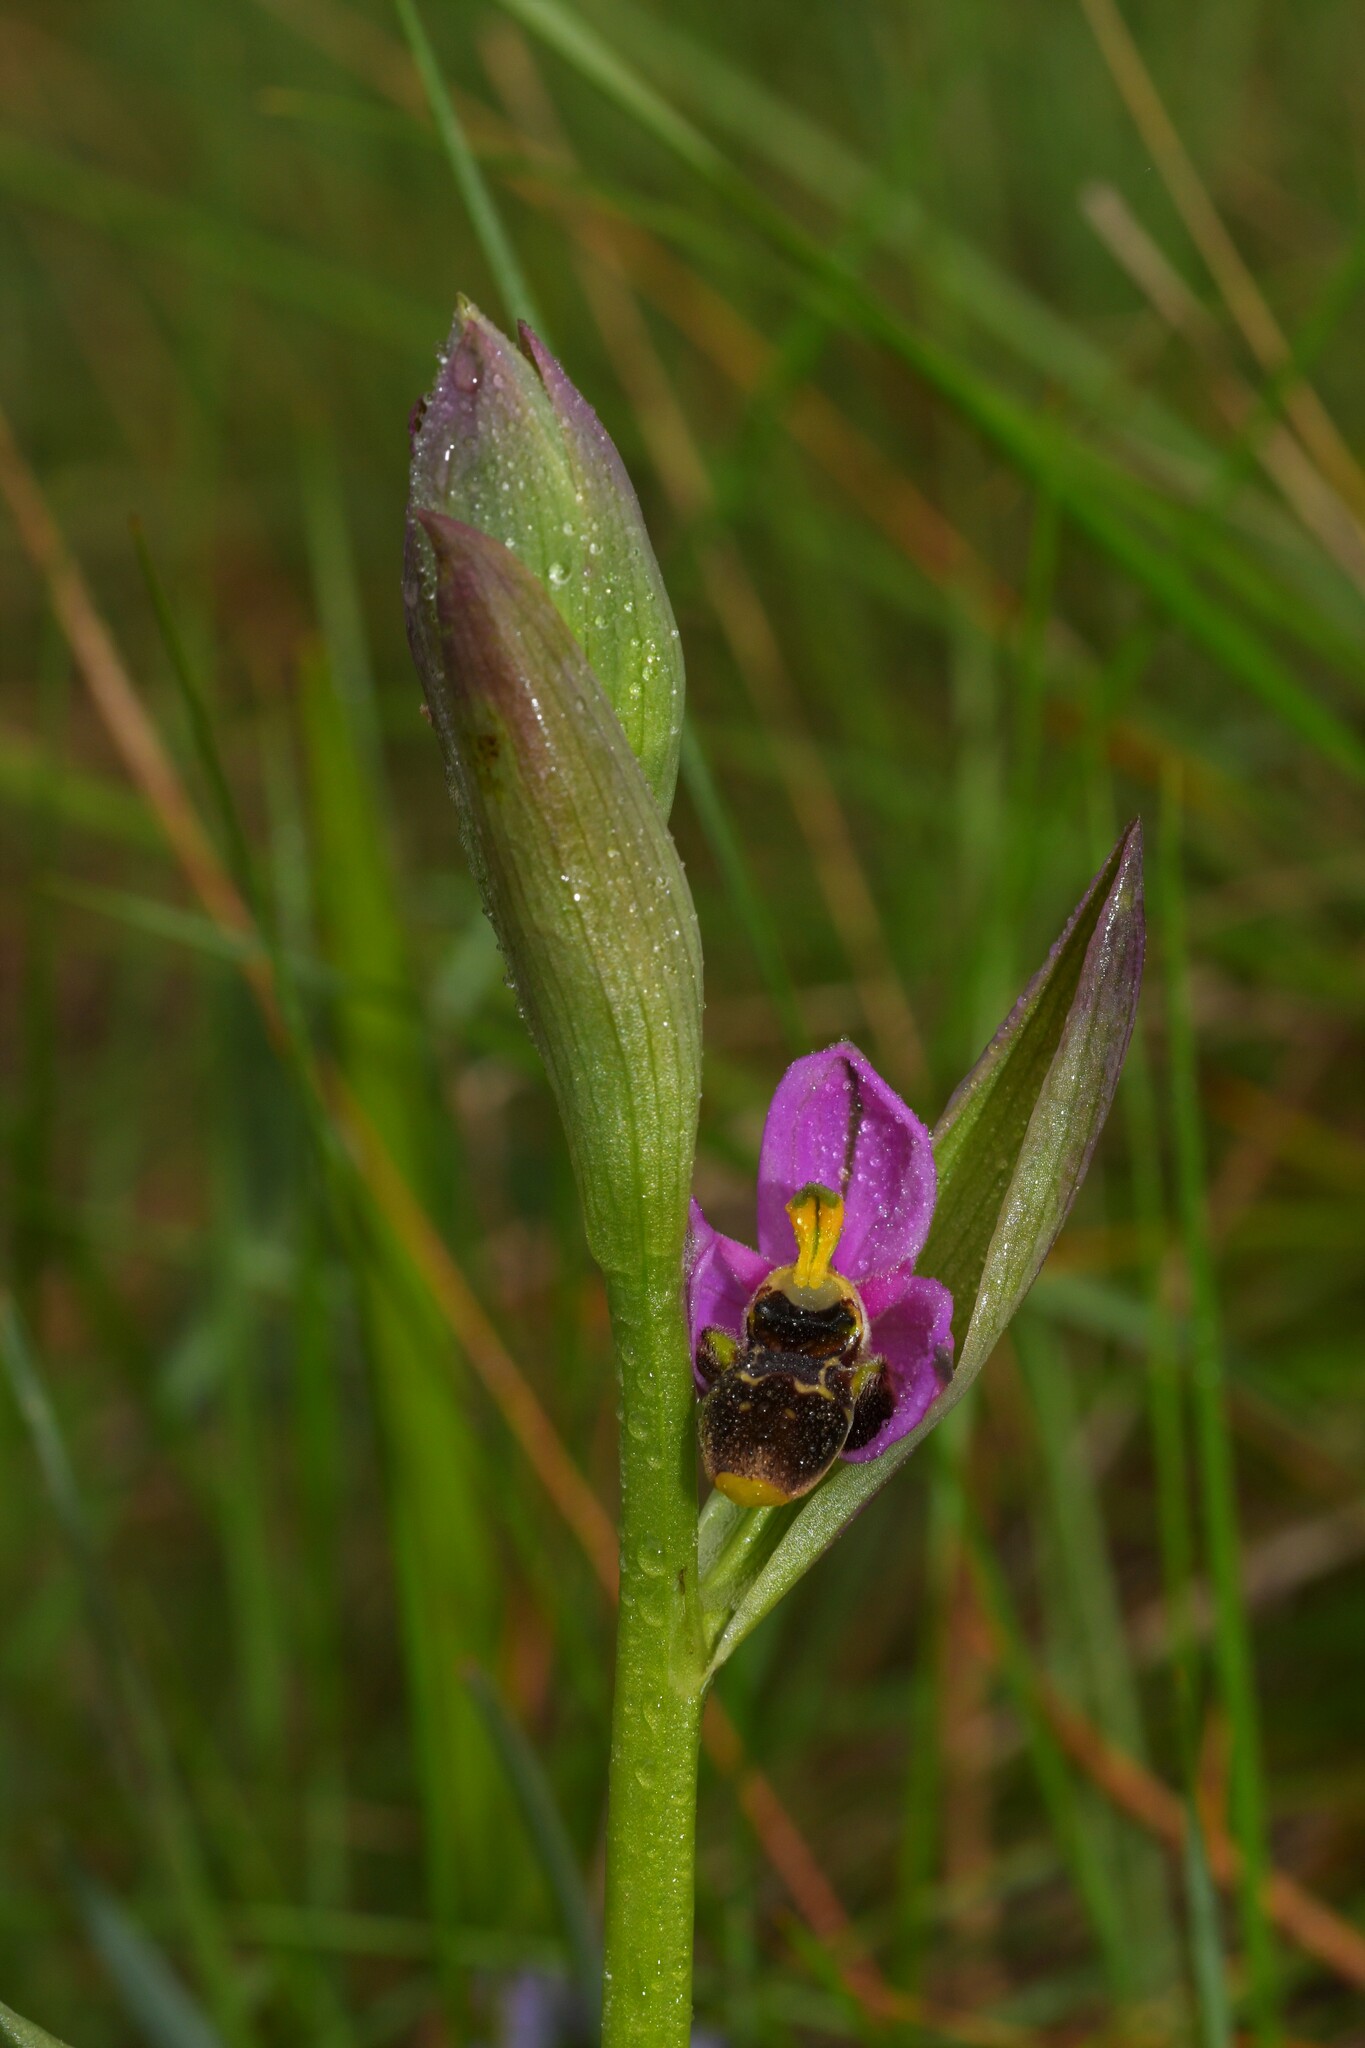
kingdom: Plantae
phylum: Tracheophyta
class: Liliopsida
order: Asparagales
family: Orchidaceae
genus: Ophrys
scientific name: Ophrys scolopax
